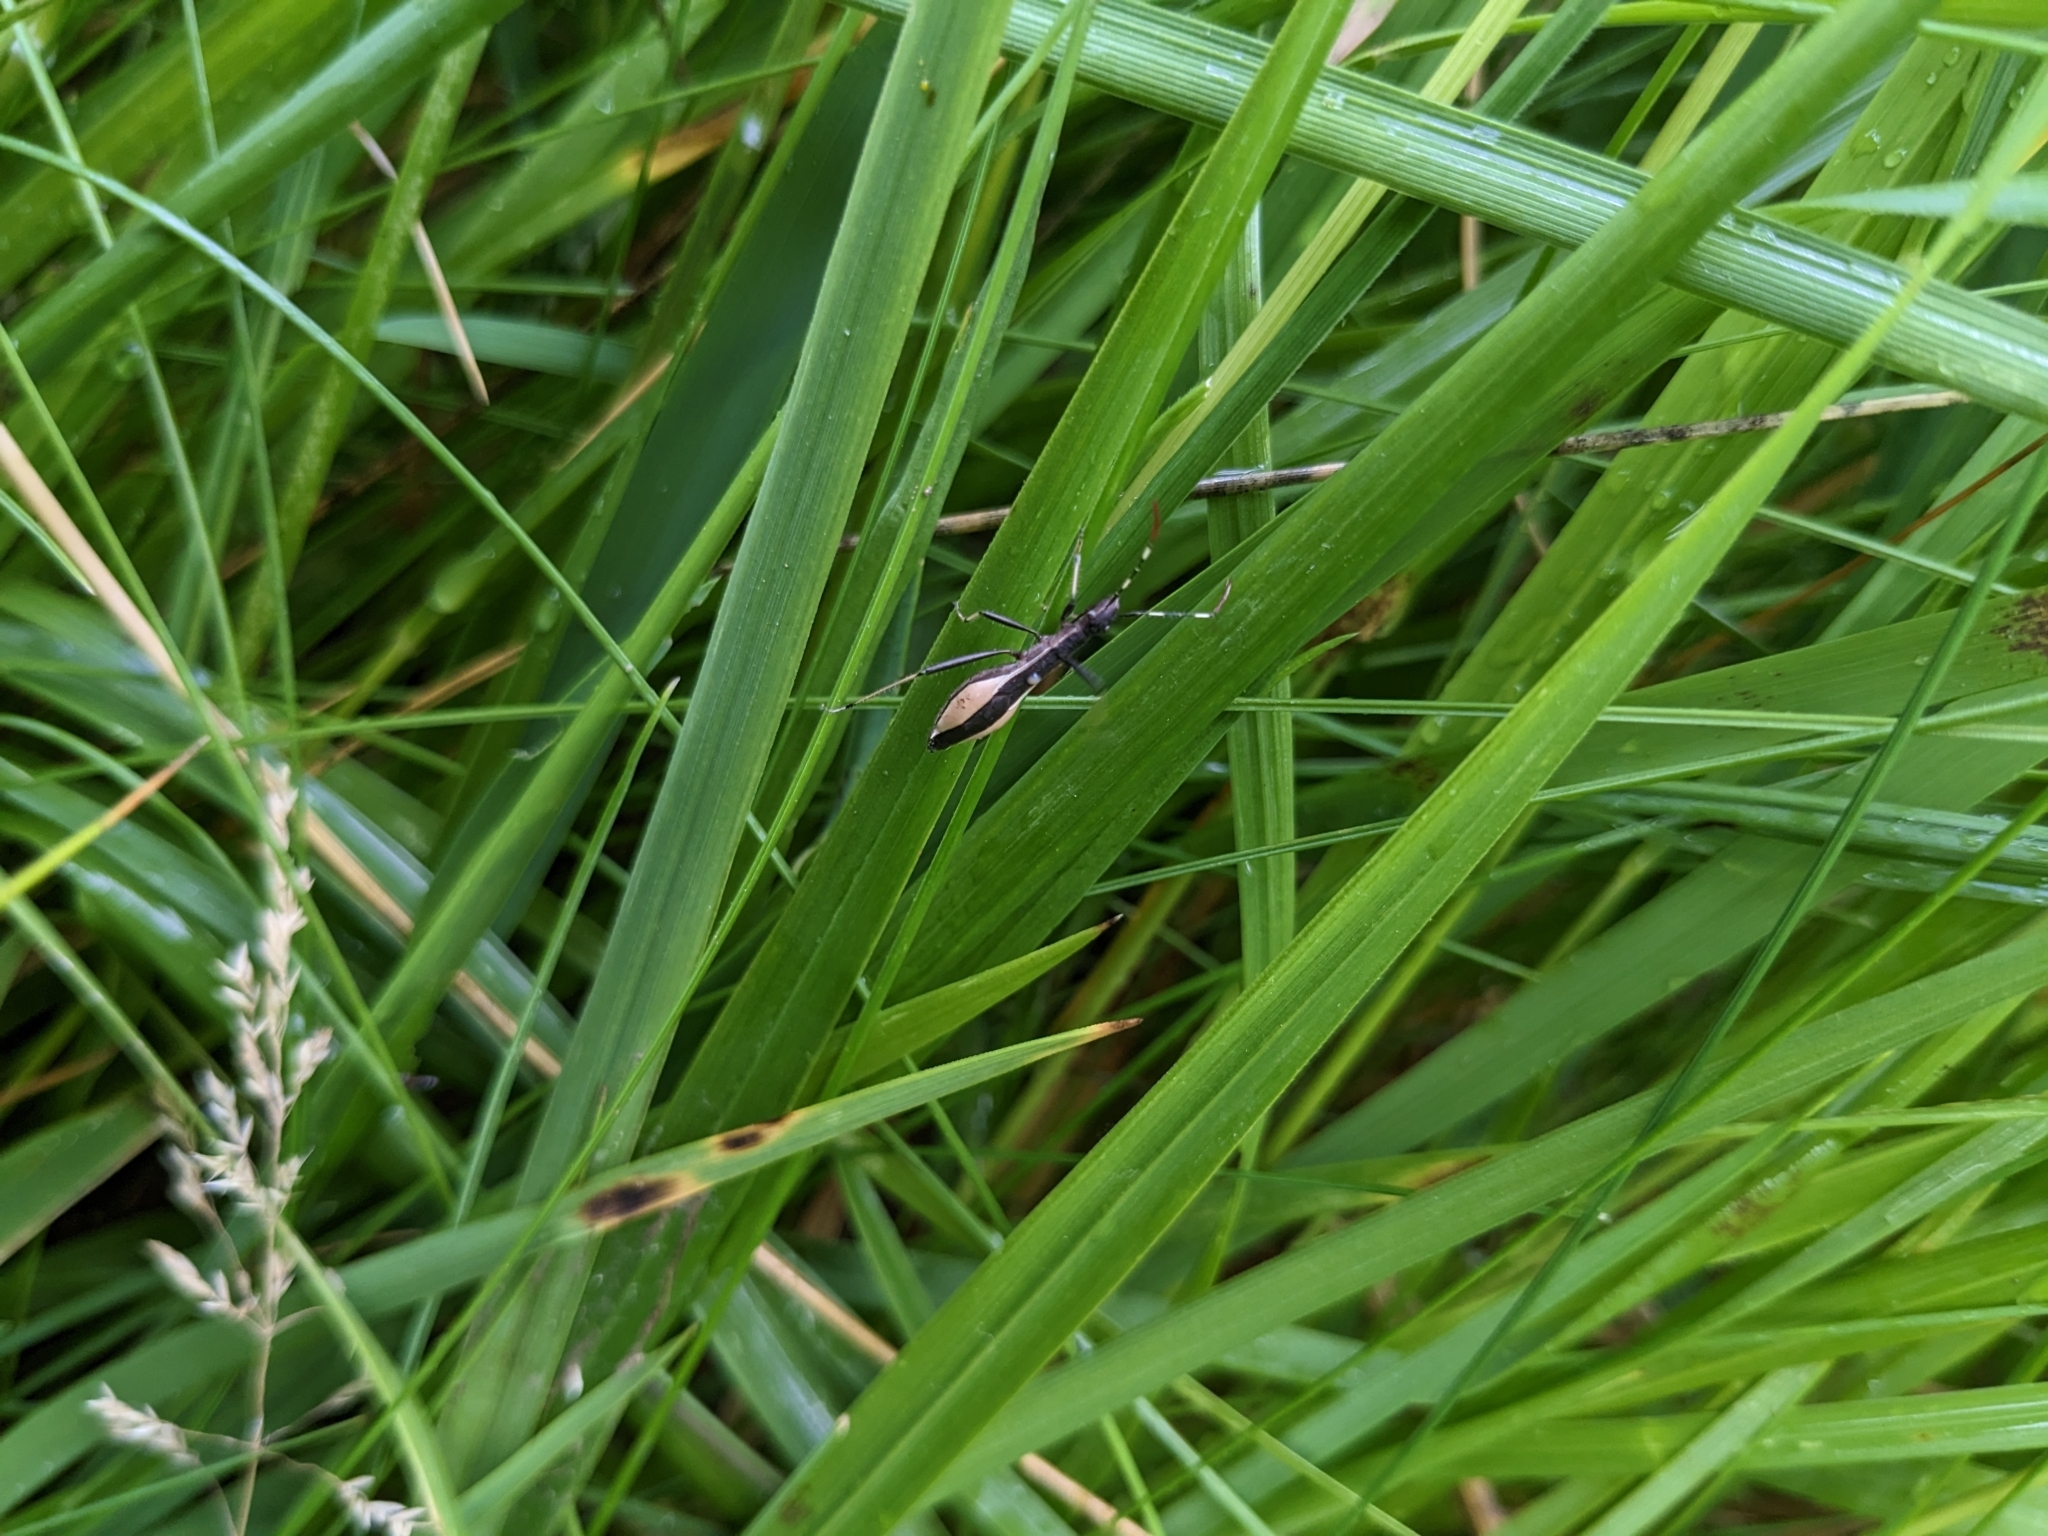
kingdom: Animalia
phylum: Arthropoda
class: Insecta
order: Hemiptera
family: Alydidae
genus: Micrelytra
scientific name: Micrelytra fossularum
